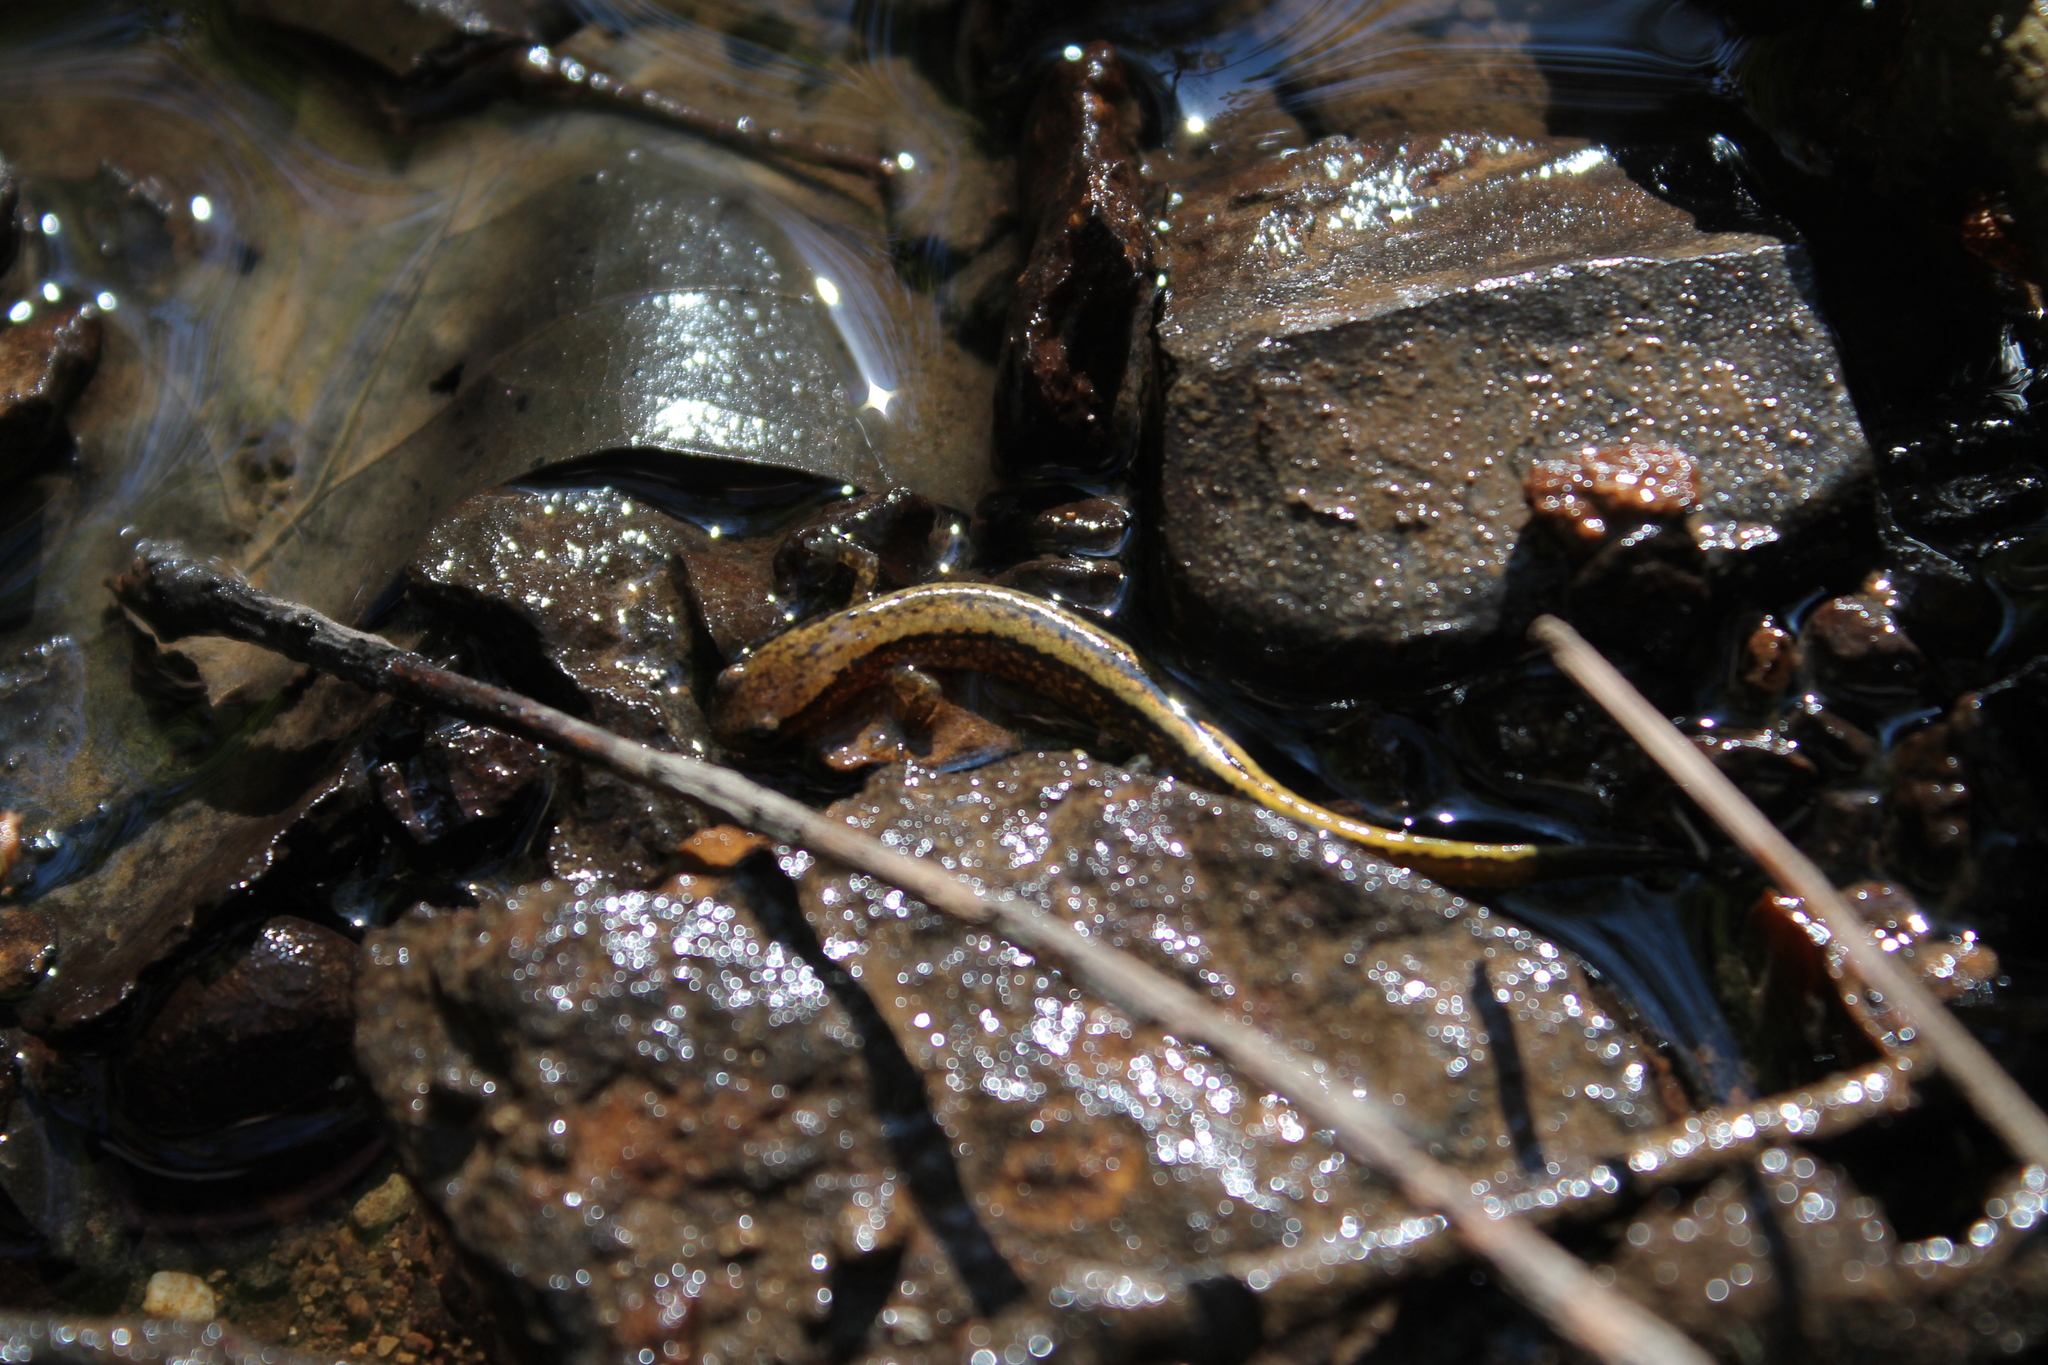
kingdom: Animalia
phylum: Chordata
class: Amphibia
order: Caudata
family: Plethodontidae
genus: Eurycea
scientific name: Eurycea cirrigera
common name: Southern two-lined salamander
